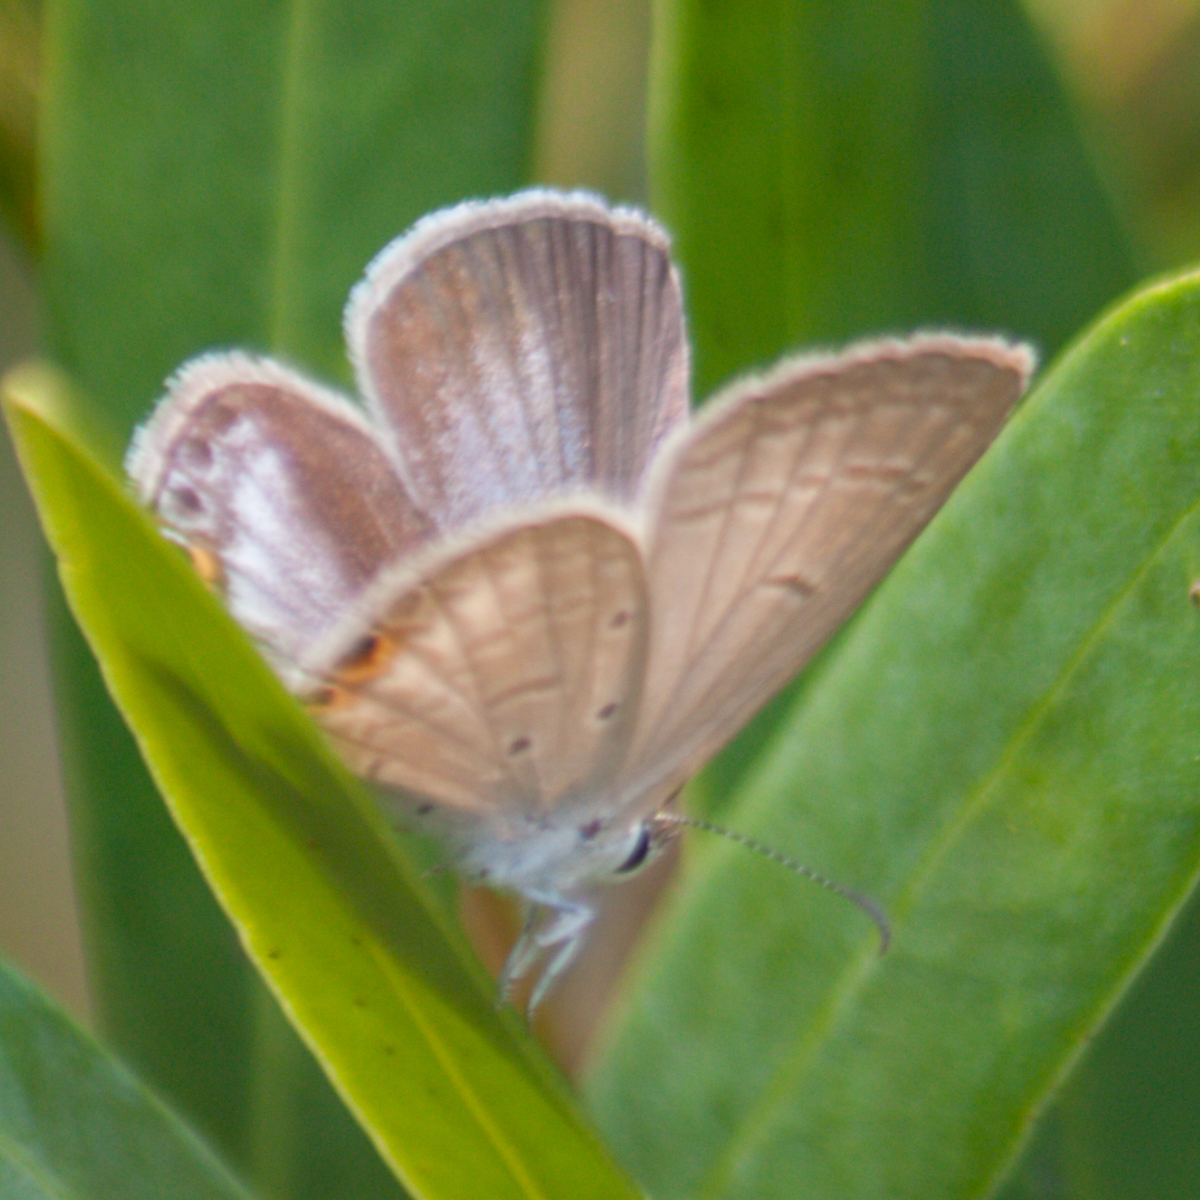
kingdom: Animalia
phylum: Arthropoda
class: Insecta
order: Lepidoptera
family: Lycaenidae
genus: Euchrysops
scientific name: Euchrysops cnejus
